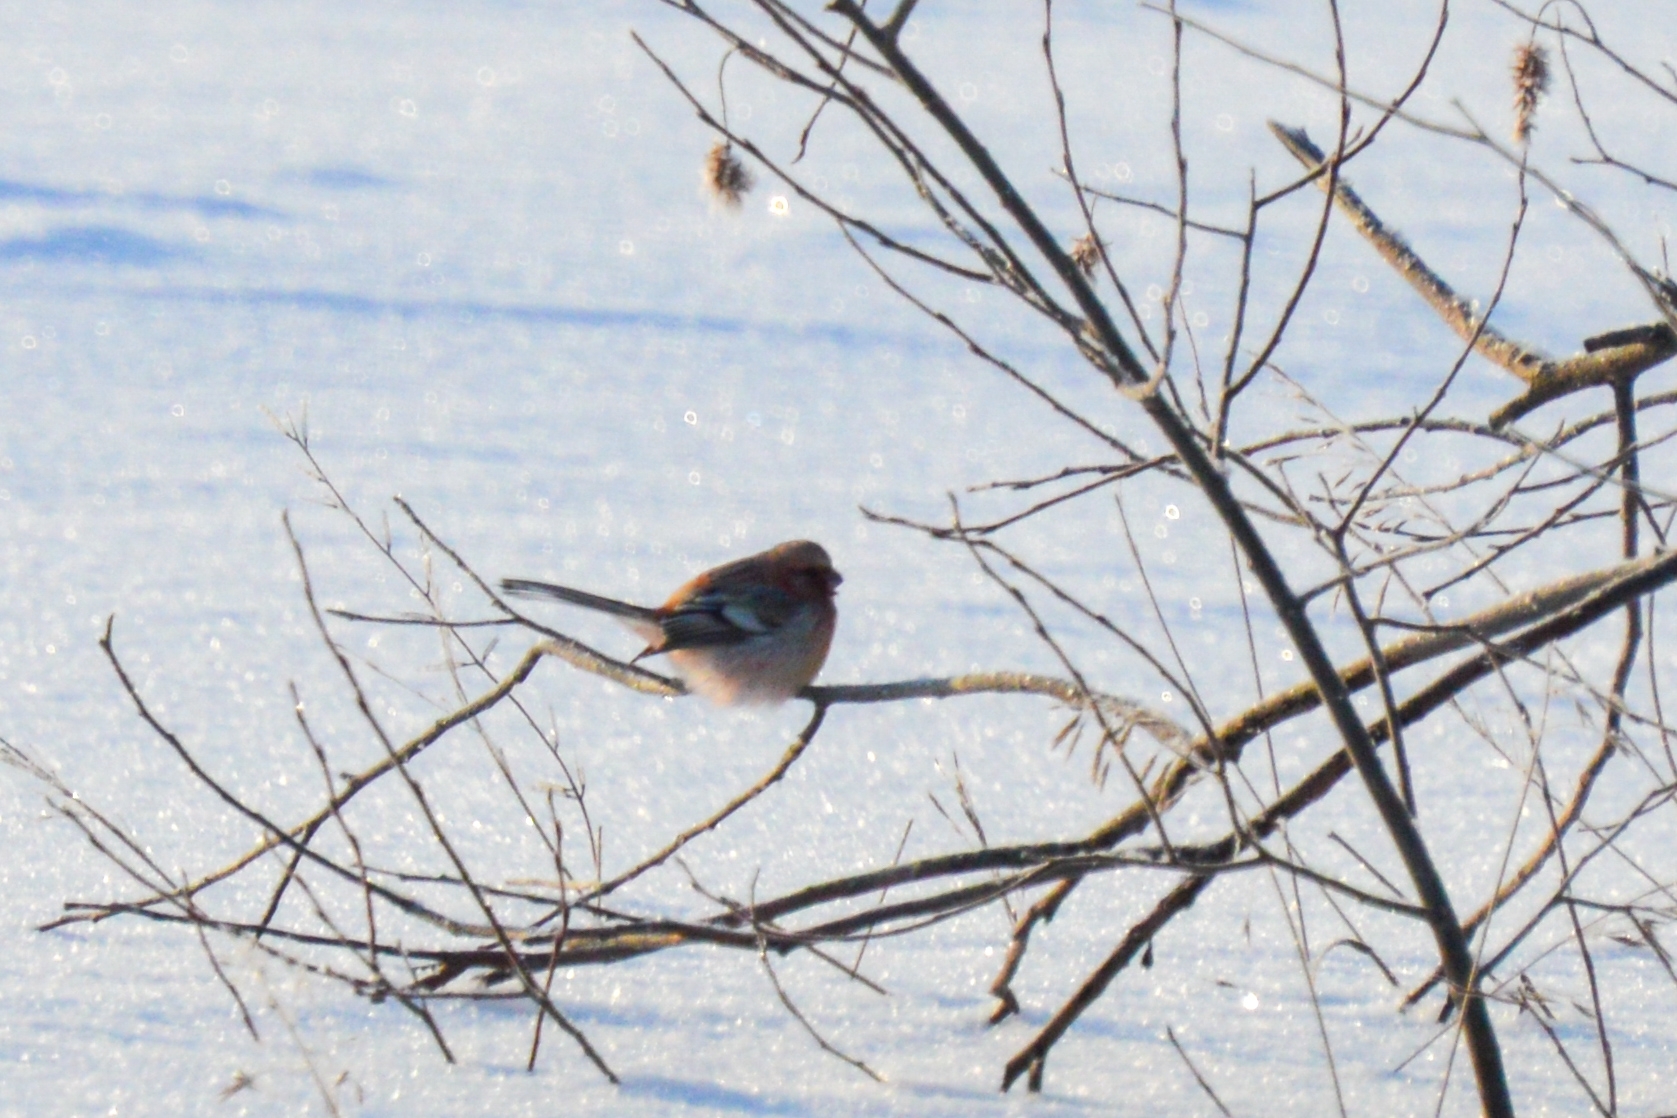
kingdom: Animalia
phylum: Chordata
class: Aves
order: Passeriformes
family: Fringillidae
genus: Carpodacus
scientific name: Carpodacus sibiricus
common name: Long-tailed rosefinch
